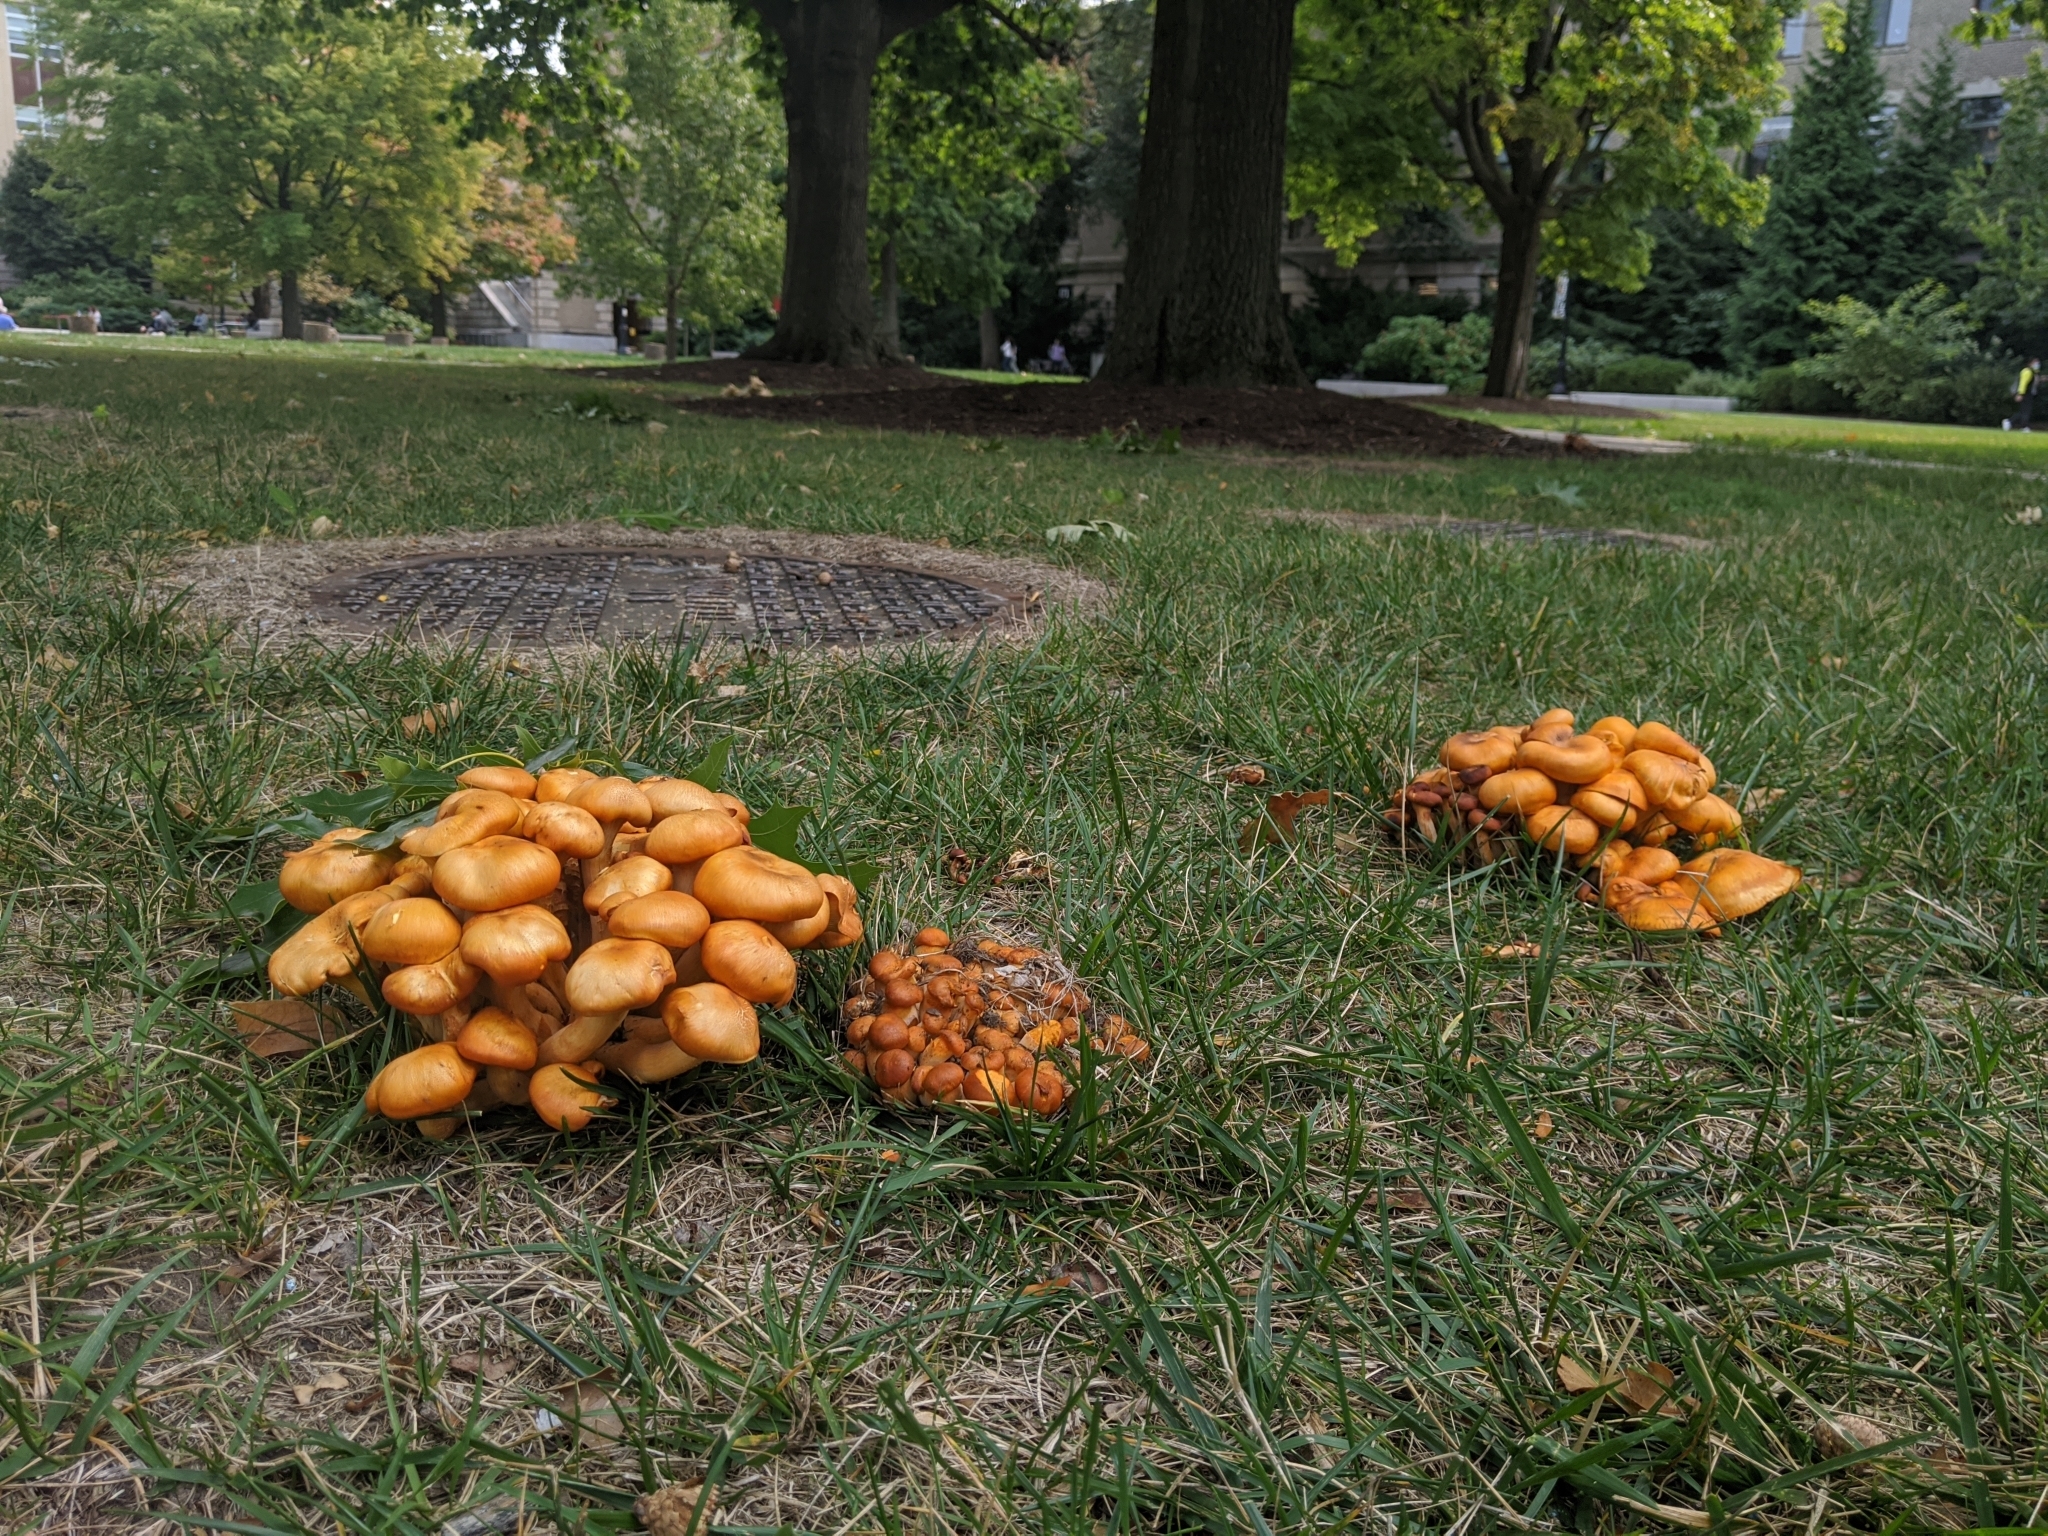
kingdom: Fungi
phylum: Basidiomycota
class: Agaricomycetes
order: Agaricales
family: Omphalotaceae
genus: Omphalotus
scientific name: Omphalotus illudens
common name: Jack o lantern
